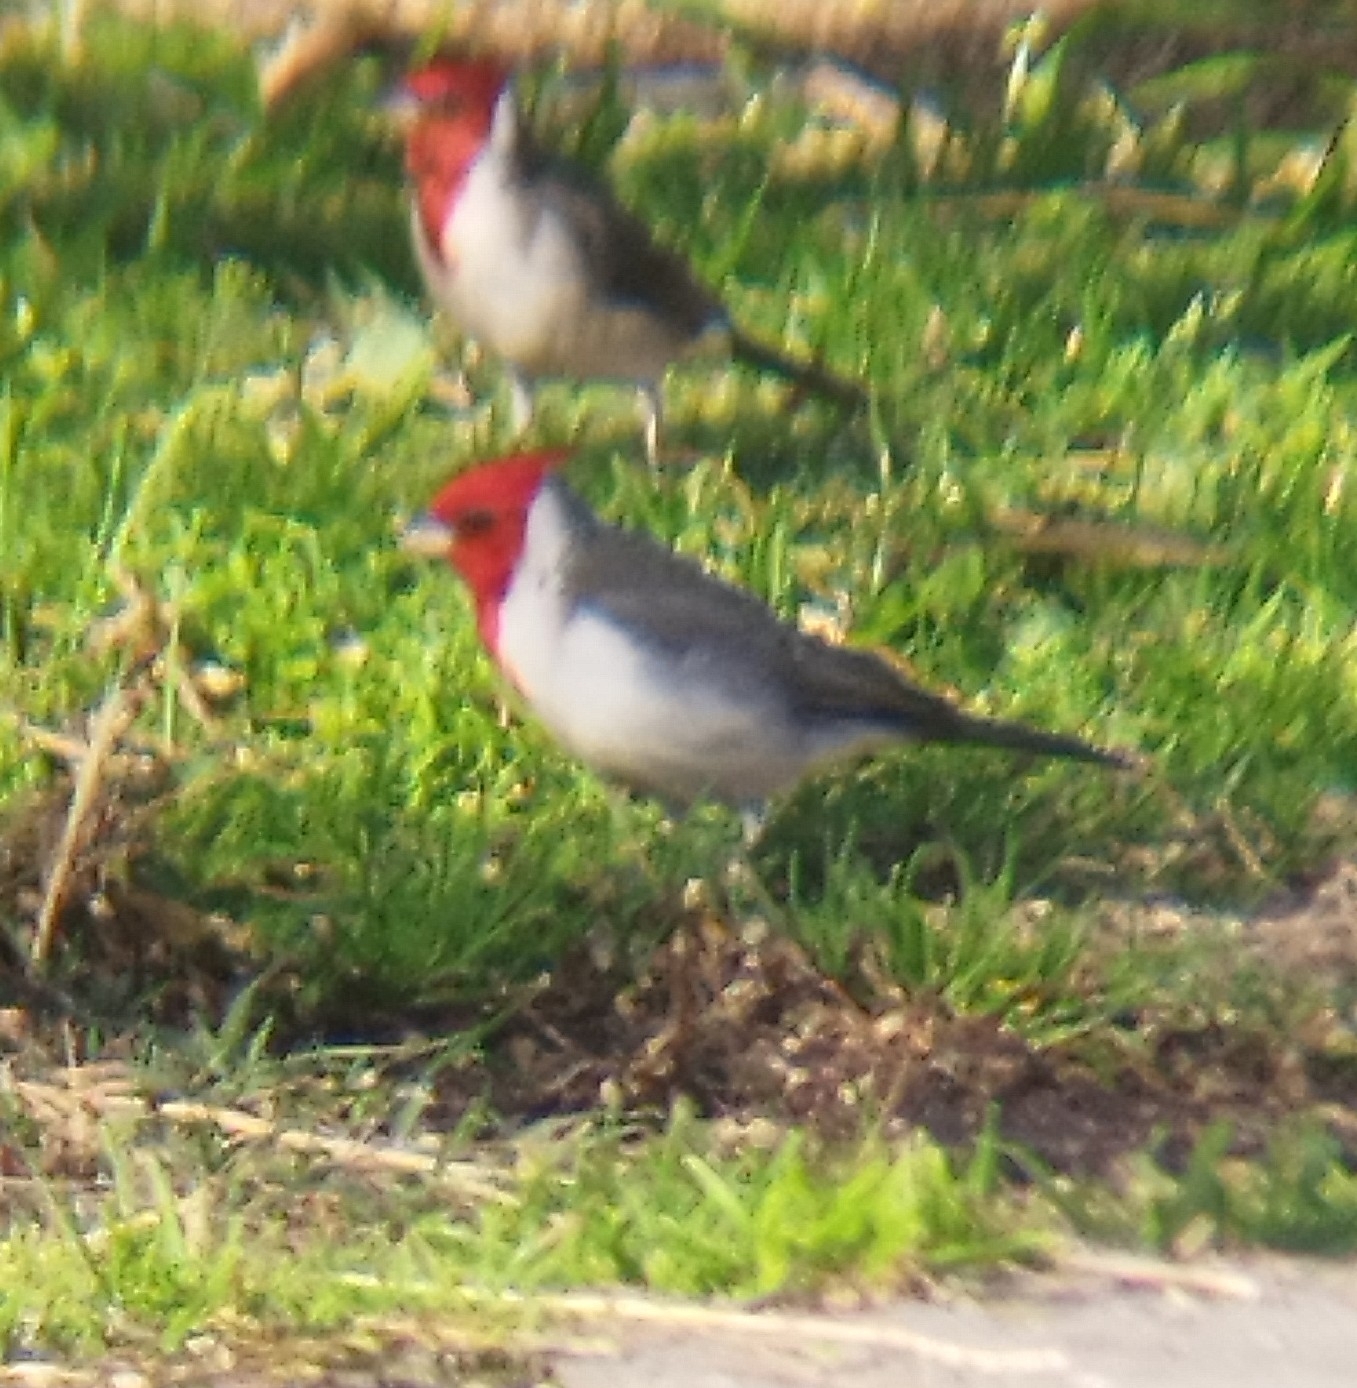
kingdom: Animalia
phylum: Chordata
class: Aves
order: Passeriformes
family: Thraupidae
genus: Paroaria
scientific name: Paroaria coronata
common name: Red-crested cardinal
